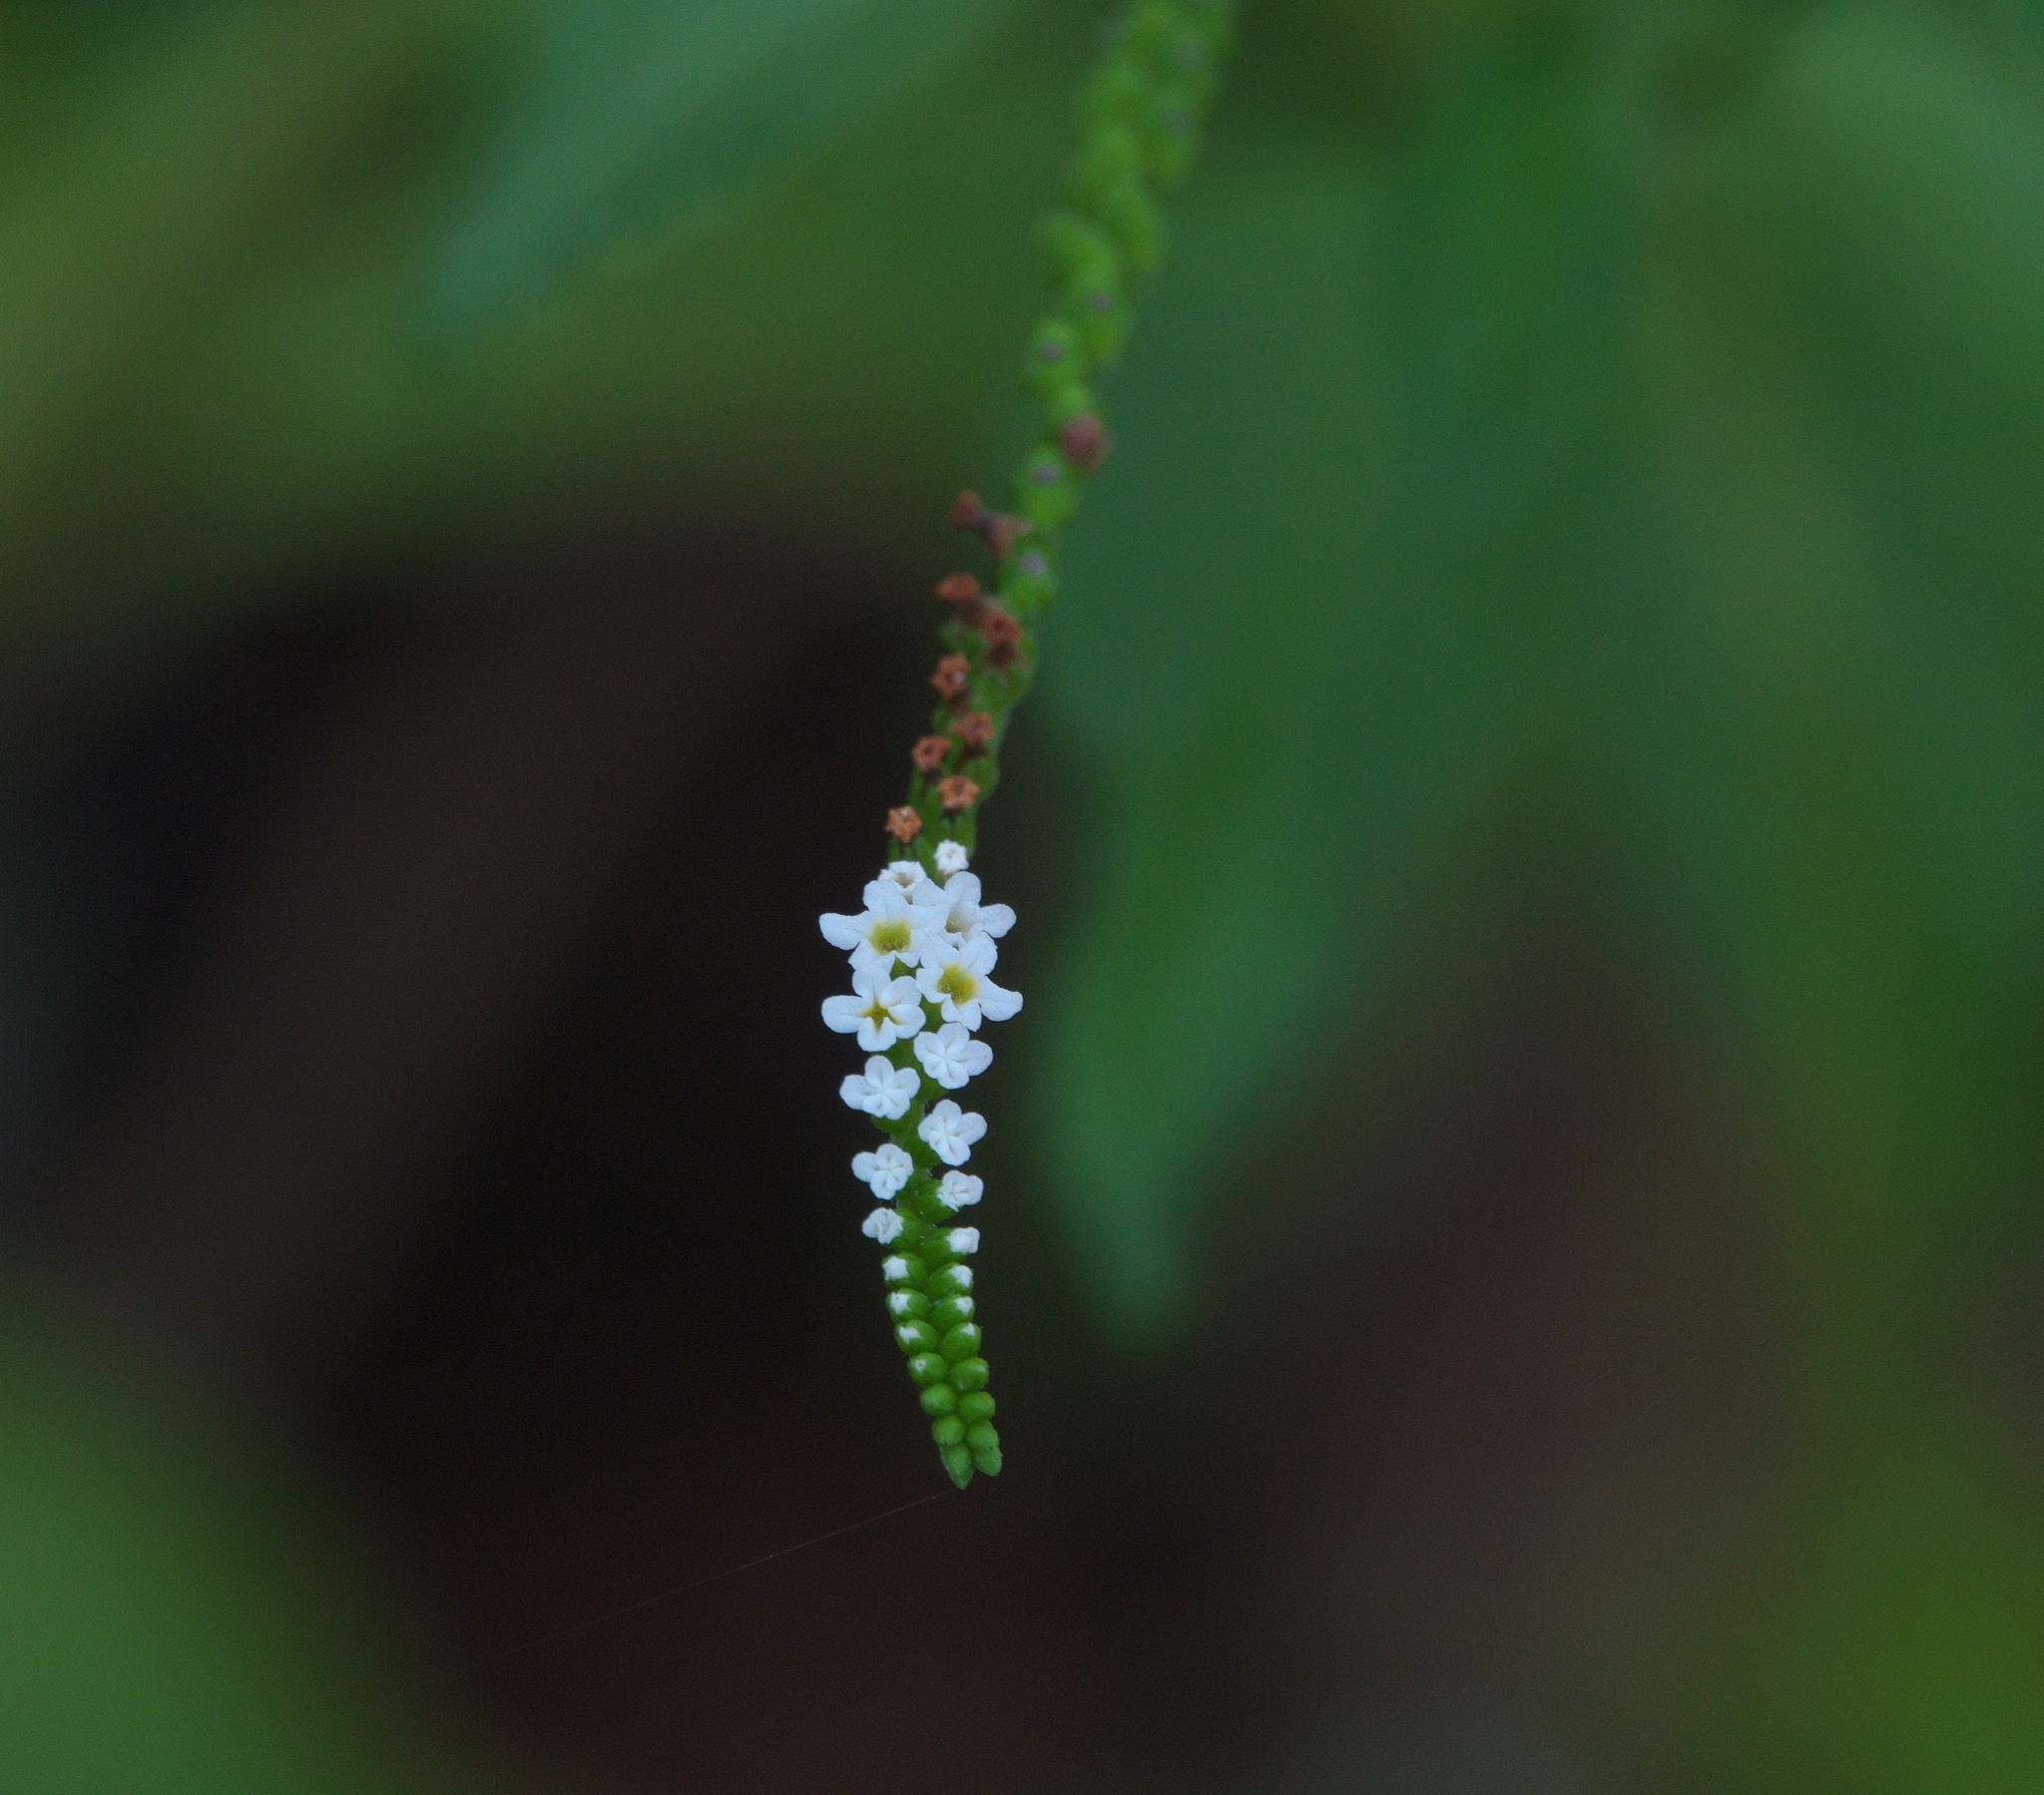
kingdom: Plantae
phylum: Tracheophyta
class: Magnoliopsida
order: Boraginales
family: Heliotropiaceae
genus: Heliotropium
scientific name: Heliotropium angiospermum
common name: Eye bright
